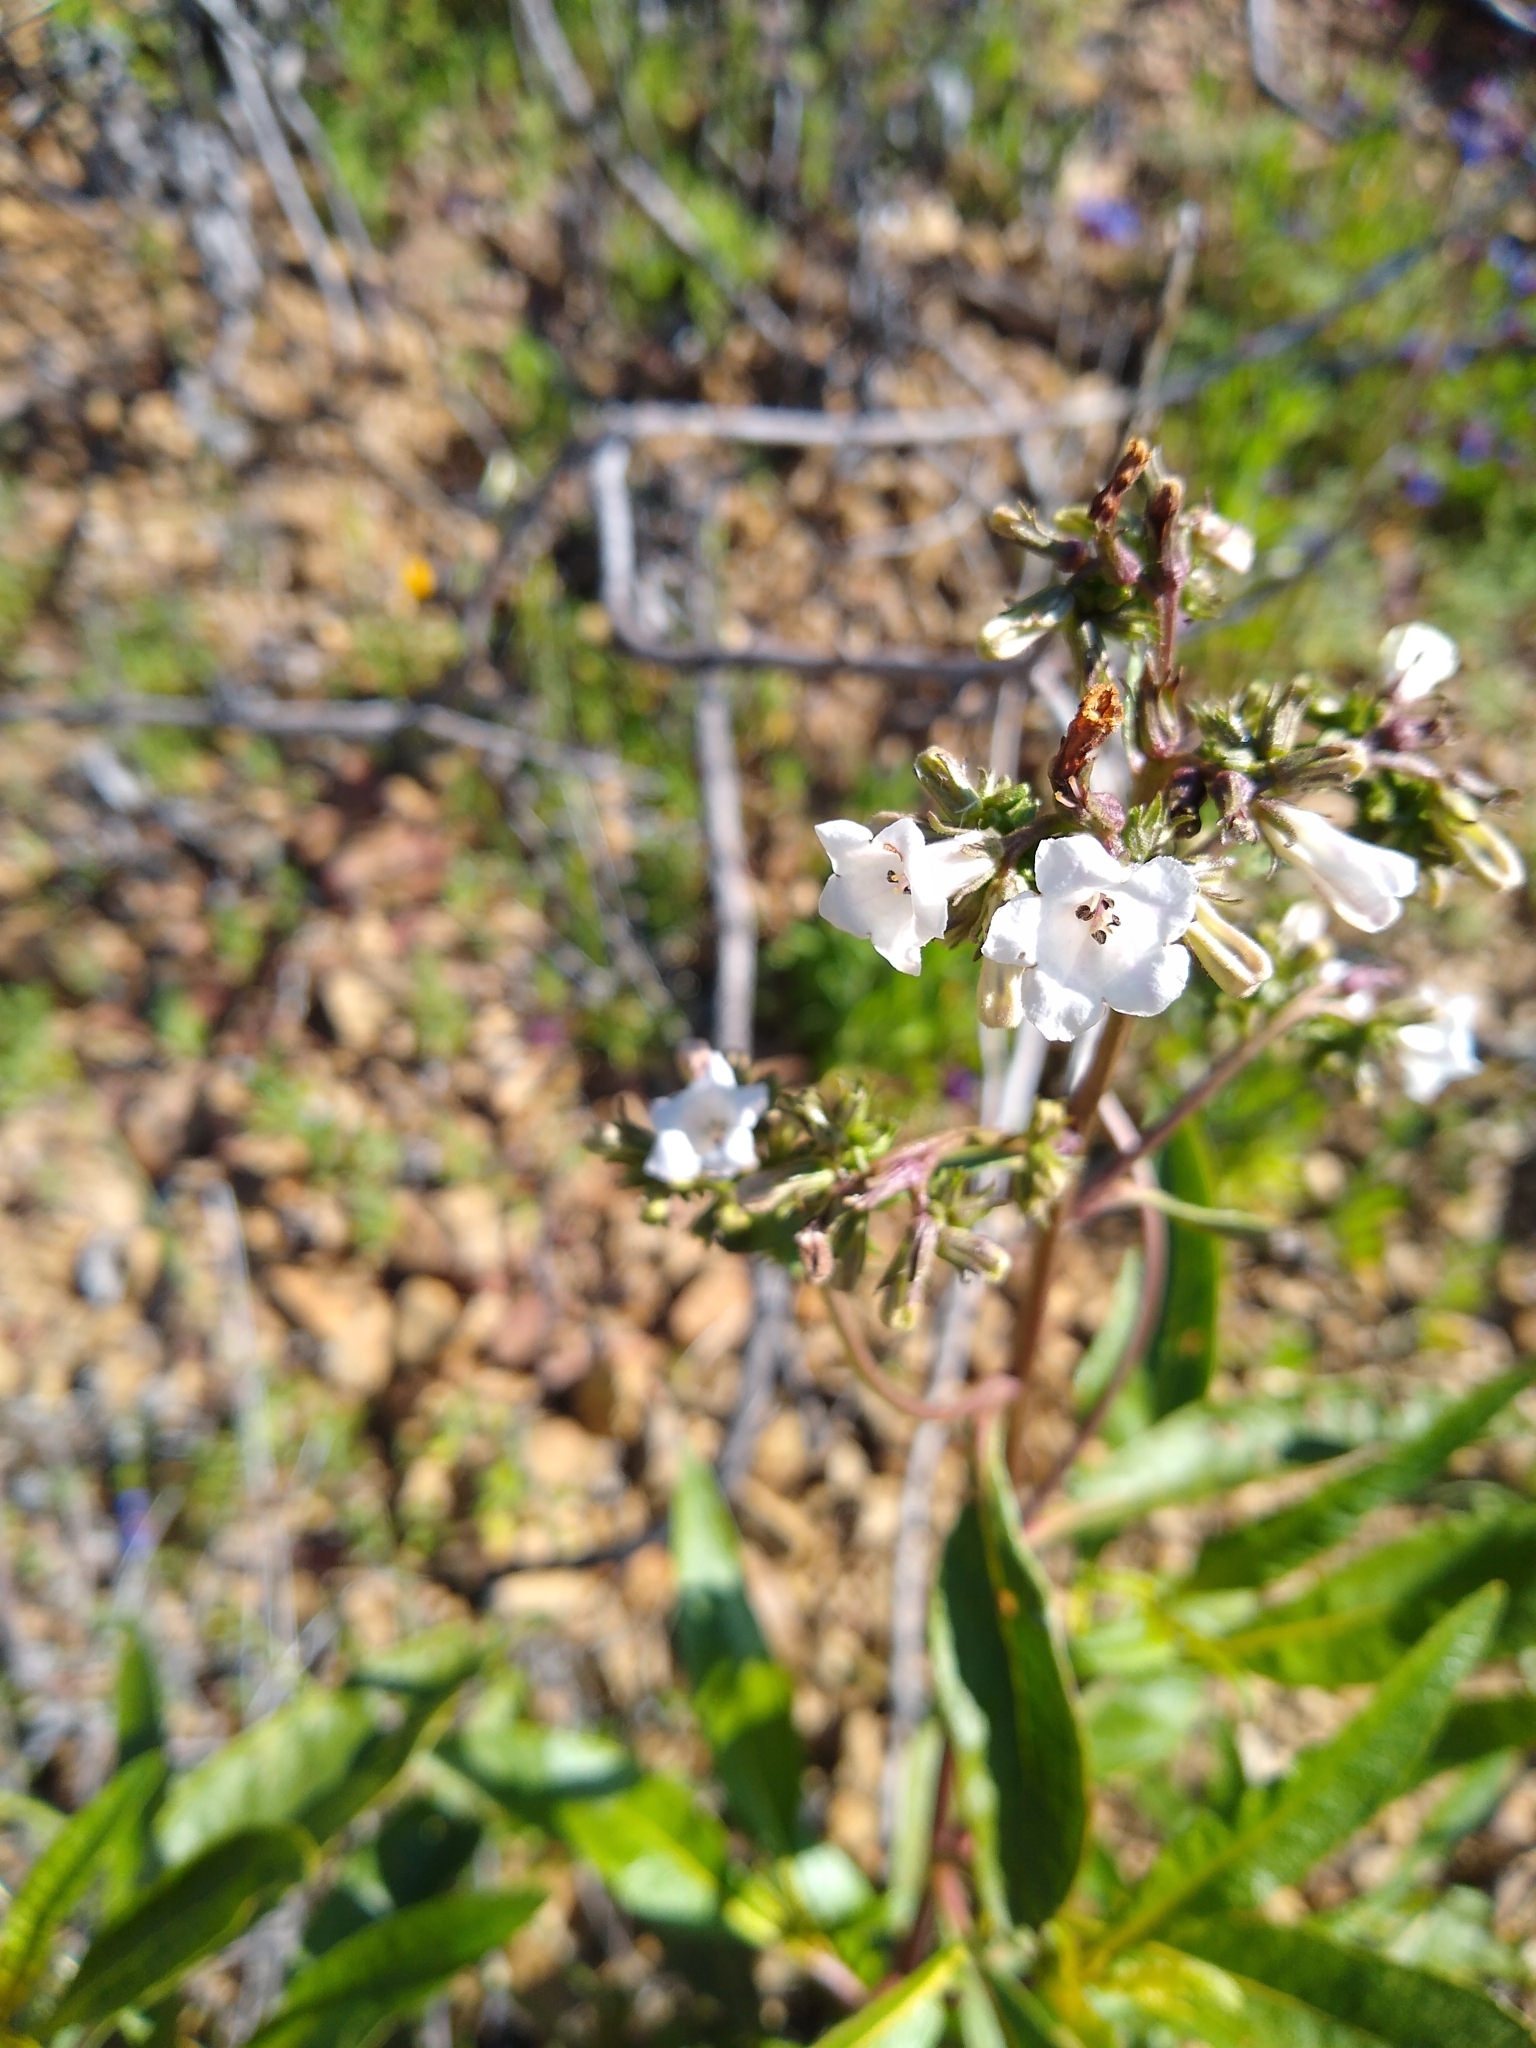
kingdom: Plantae
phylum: Tracheophyta
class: Magnoliopsida
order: Boraginales
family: Namaceae
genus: Eriodictyon
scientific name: Eriodictyon californicum
